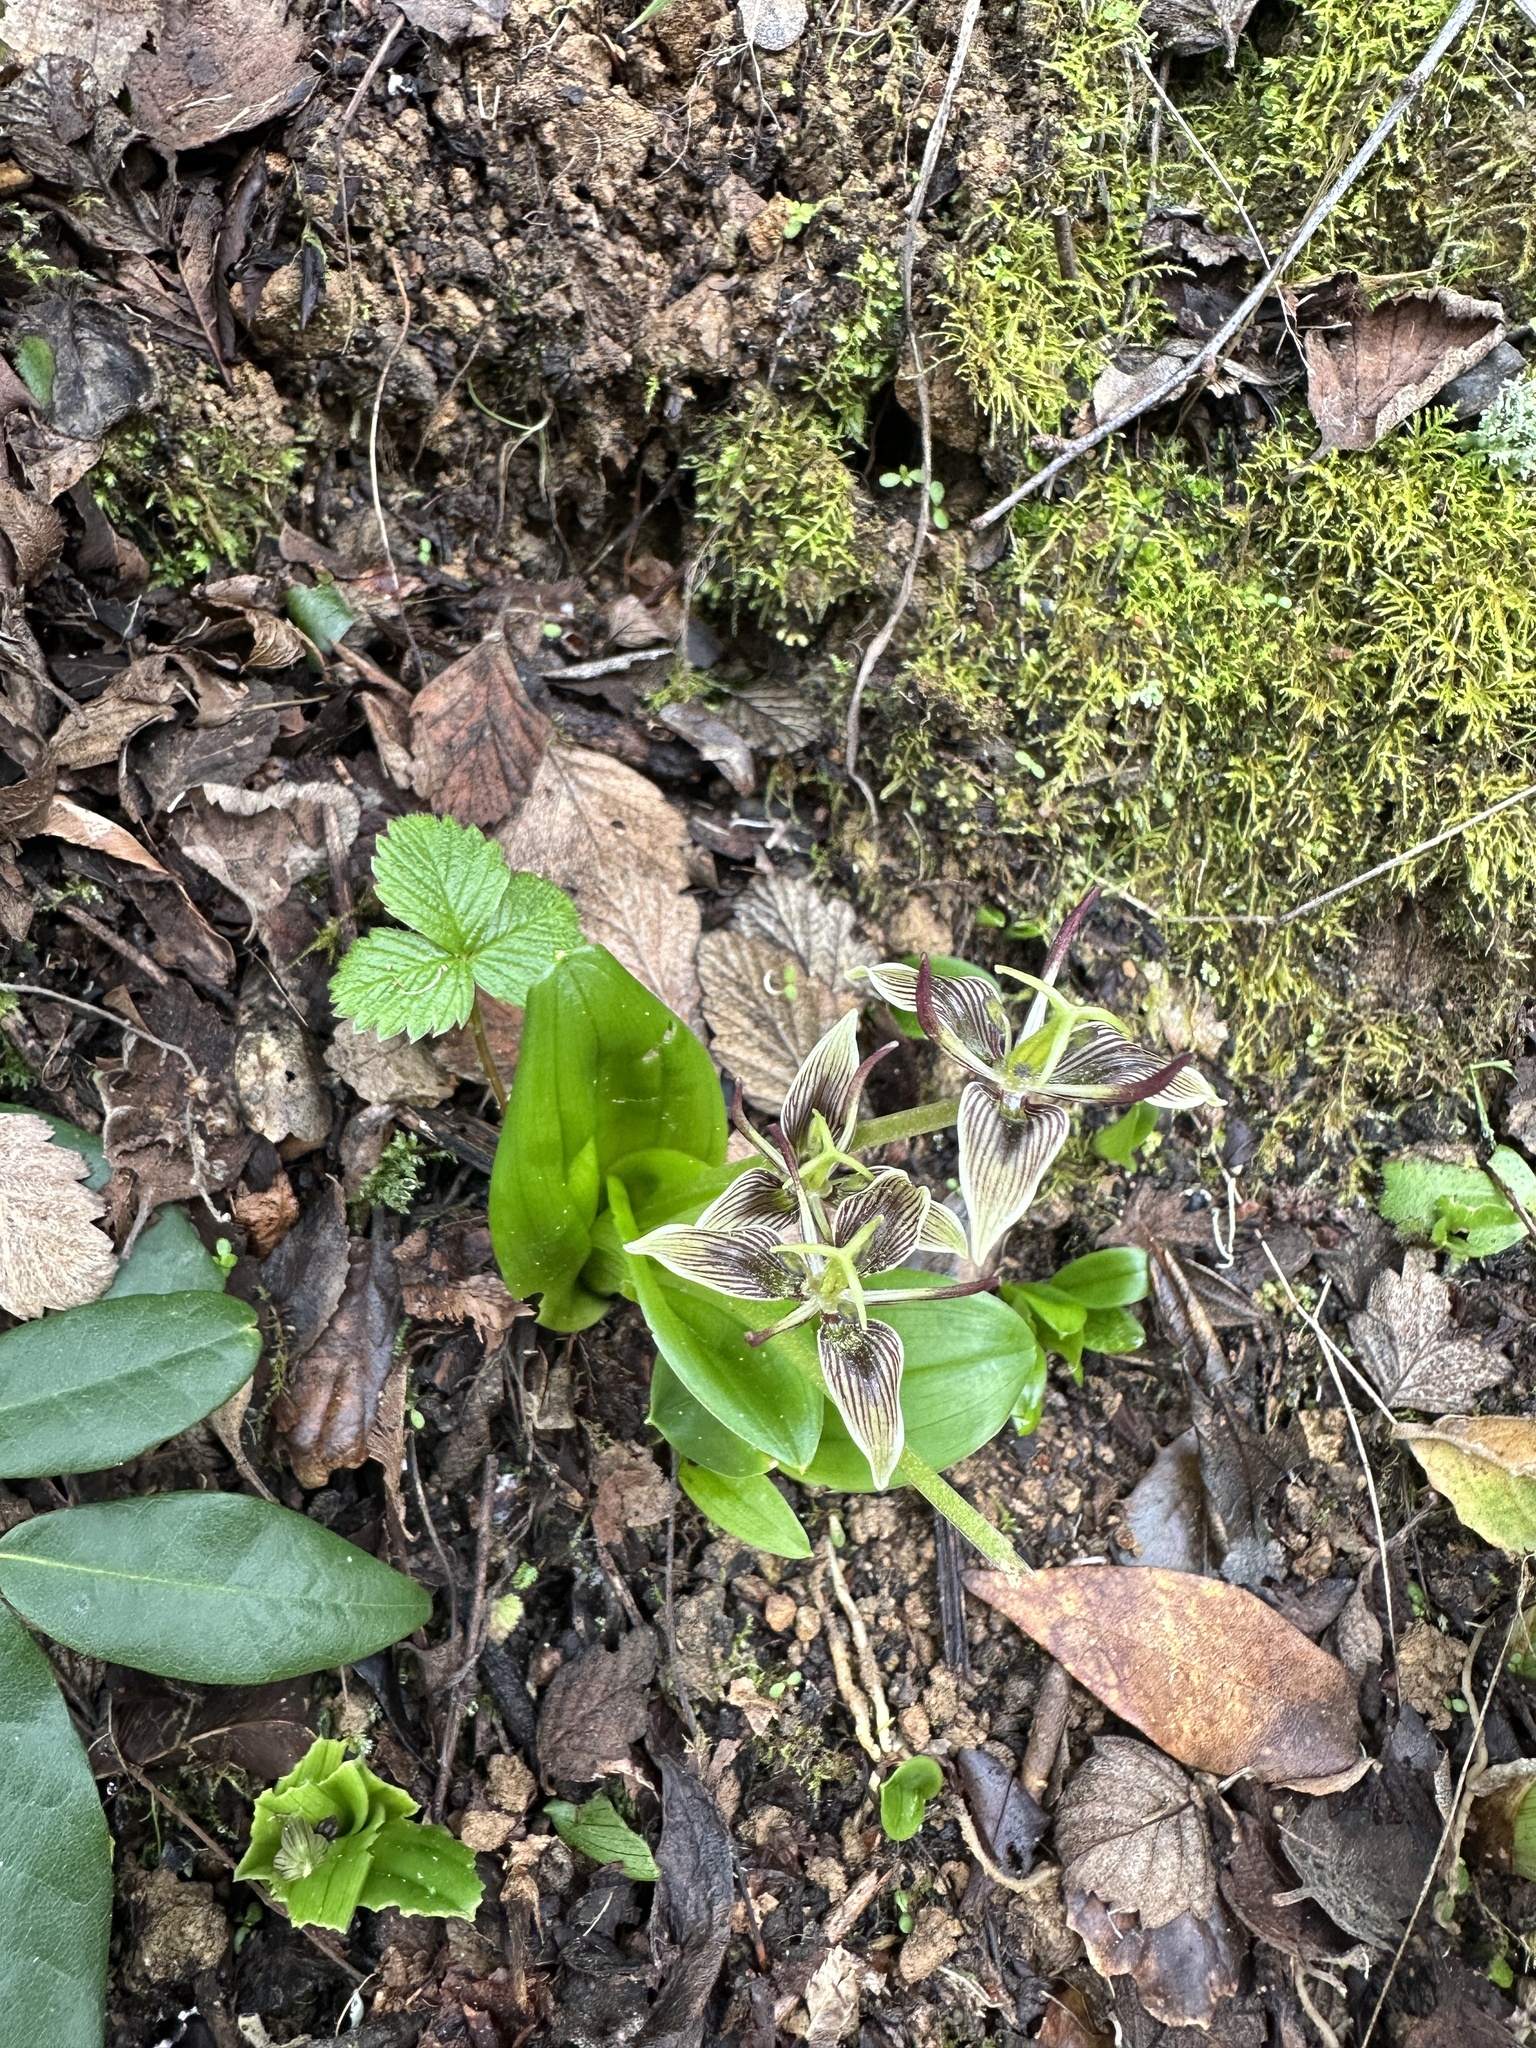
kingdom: Plantae
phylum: Tracheophyta
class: Liliopsida
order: Liliales
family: Liliaceae
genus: Scoliopus
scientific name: Scoliopus bigelovii
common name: Foetid adder's-tongue
